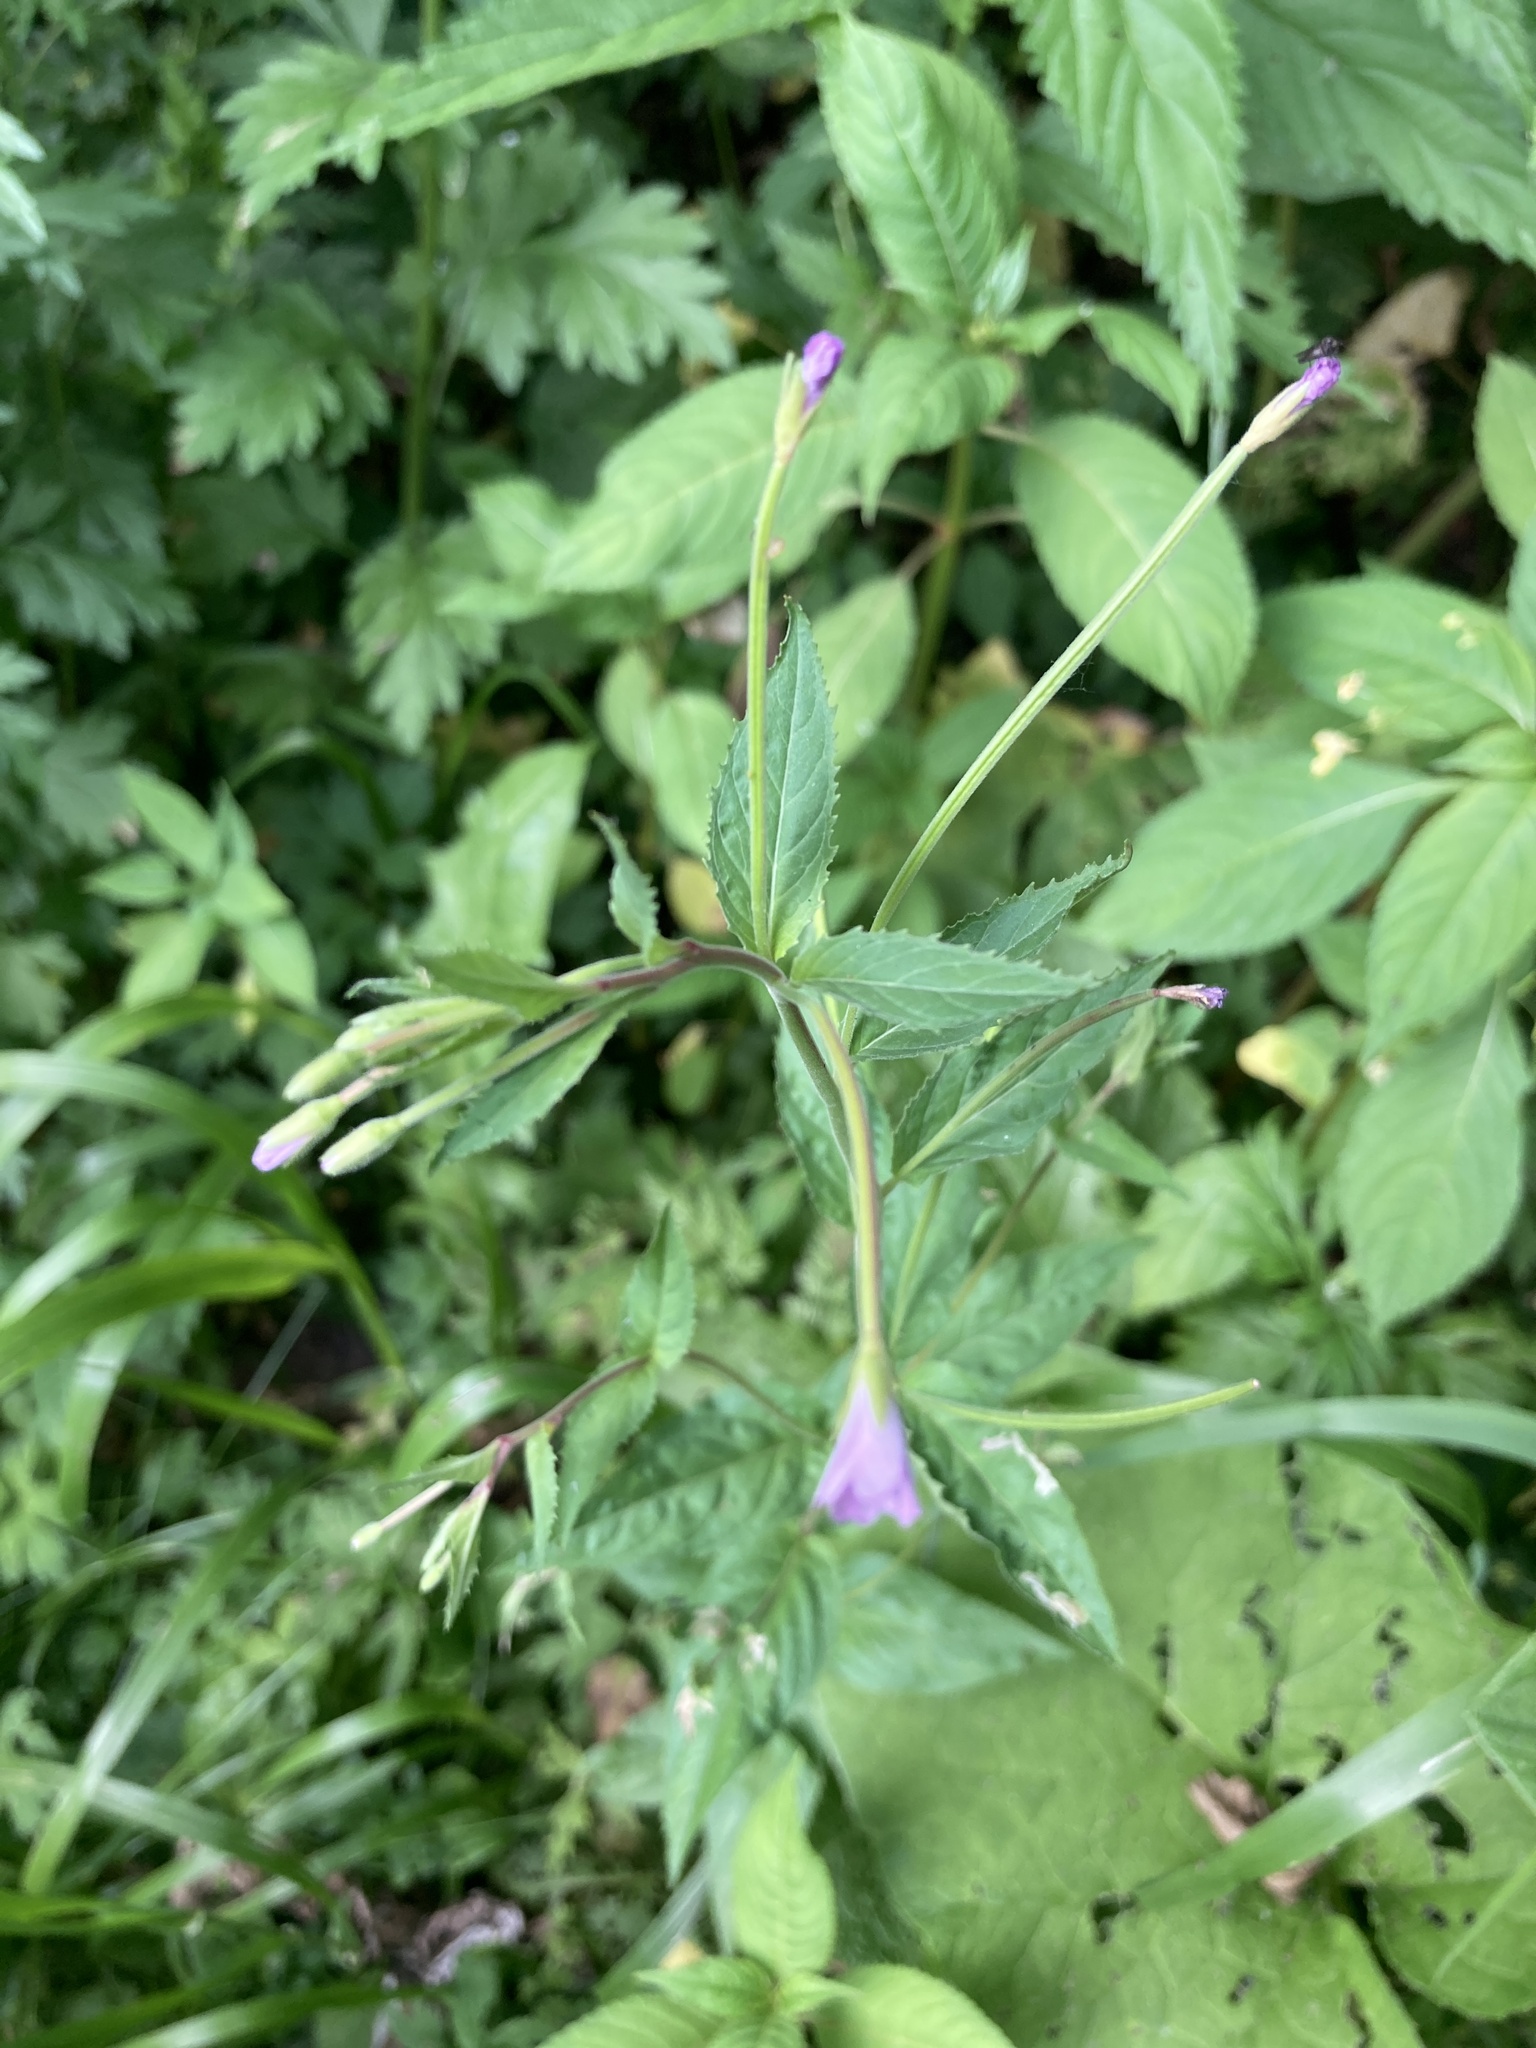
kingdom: Plantae
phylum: Tracheophyta
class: Magnoliopsida
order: Myrtales
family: Onagraceae
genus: Epilobium
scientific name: Epilobium montanum
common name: Broad-leaved willowherb
